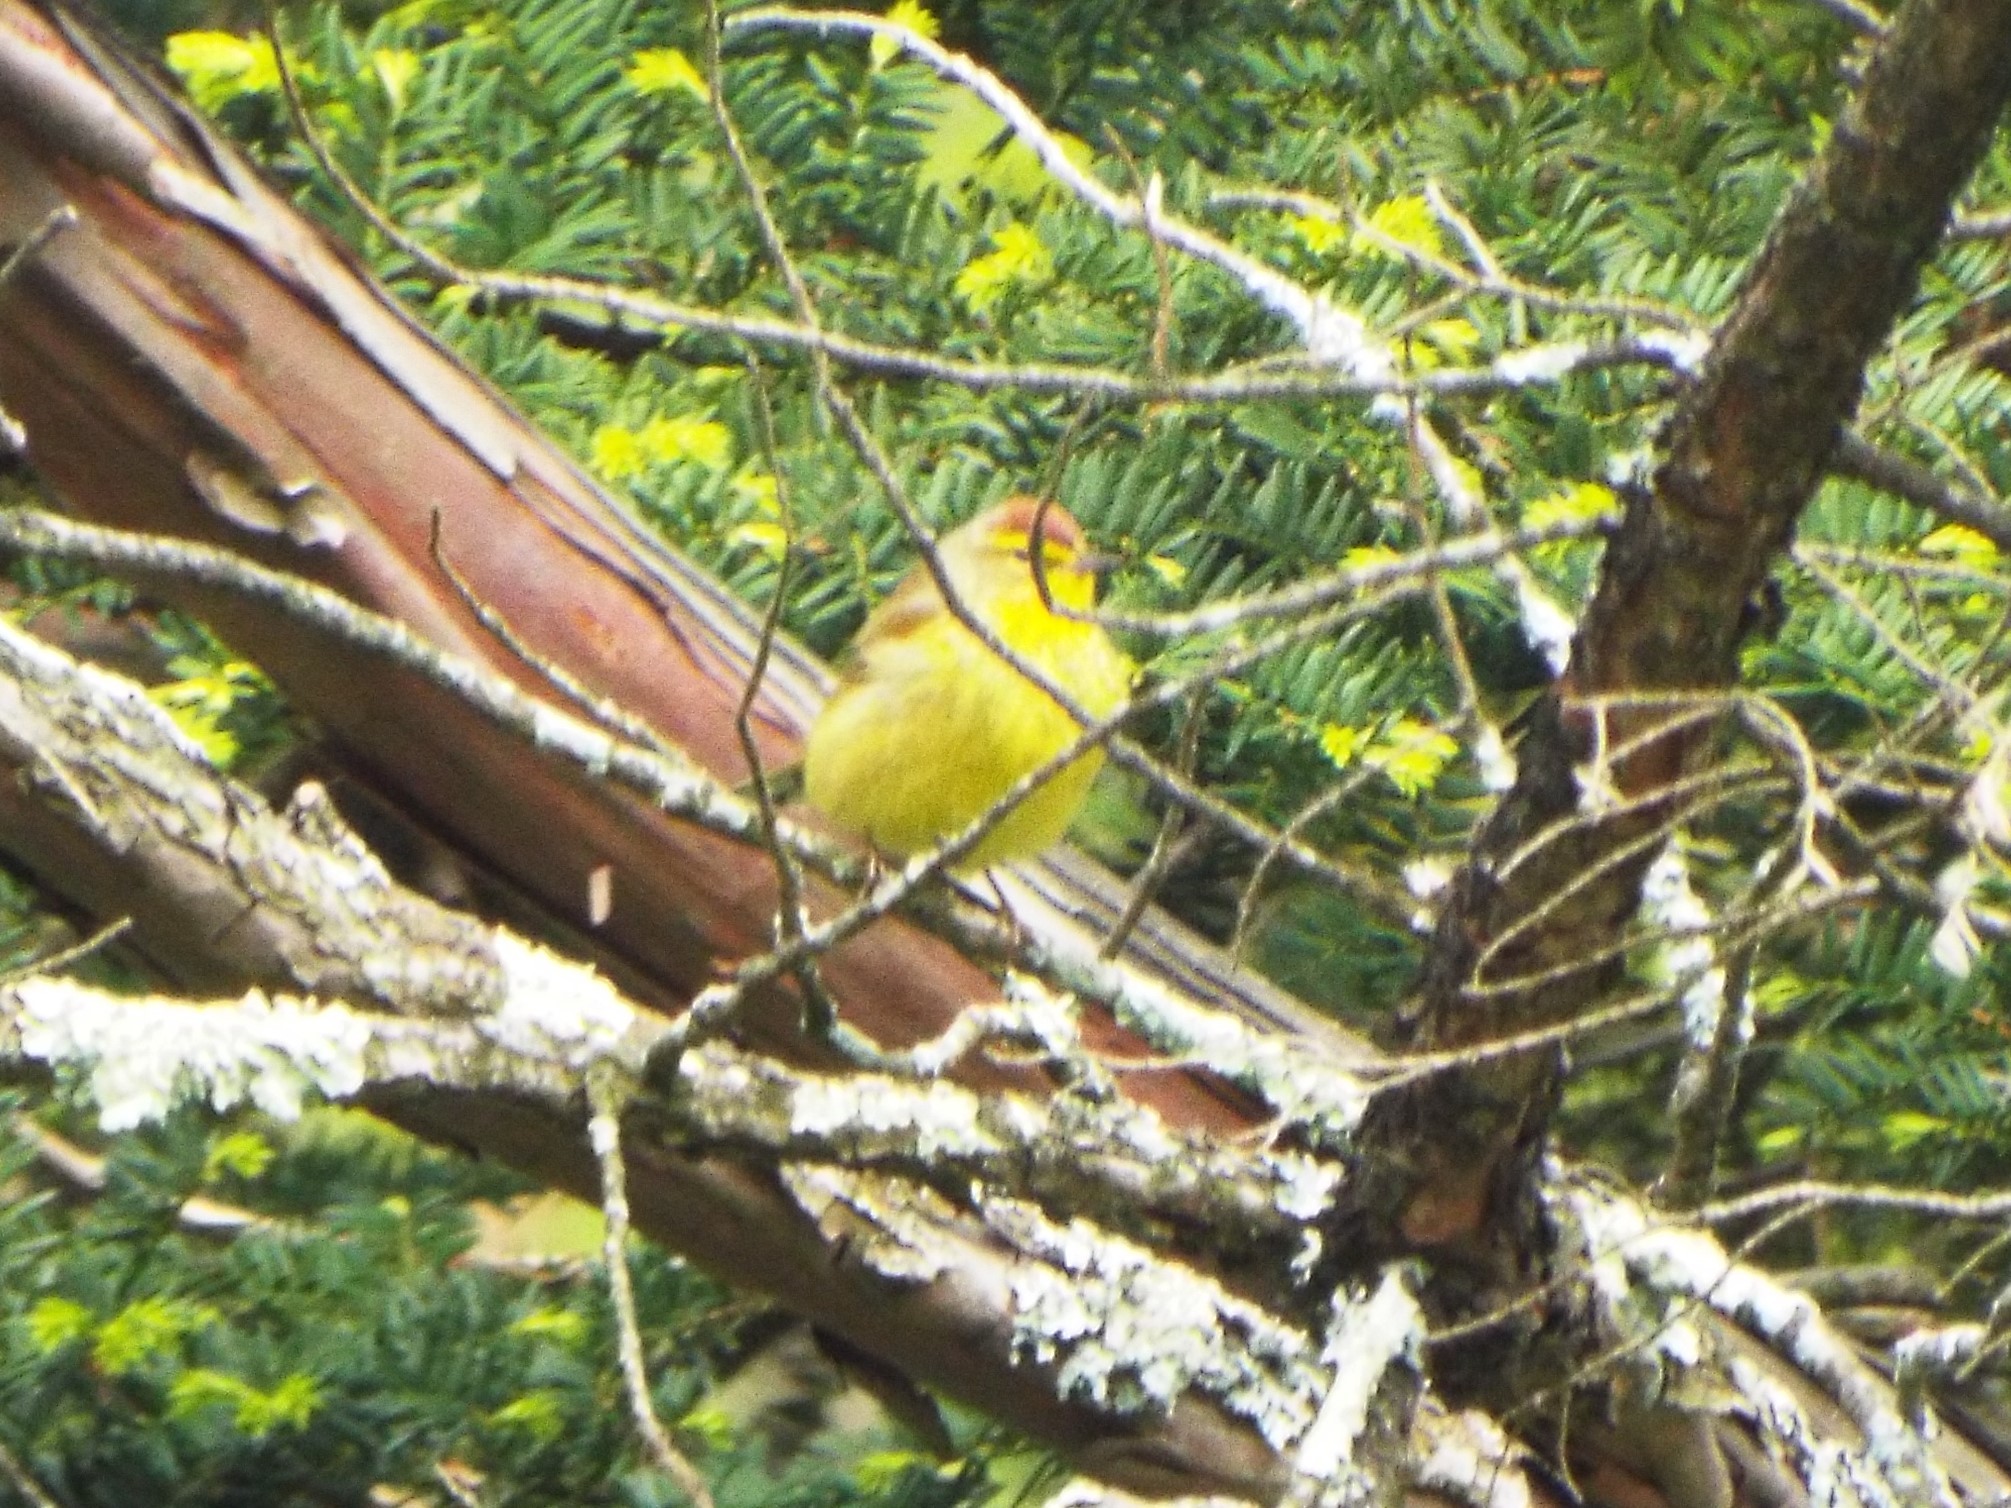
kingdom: Animalia
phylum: Chordata
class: Aves
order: Passeriformes
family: Parulidae
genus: Setophaga
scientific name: Setophaga palmarum
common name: Palm warbler
